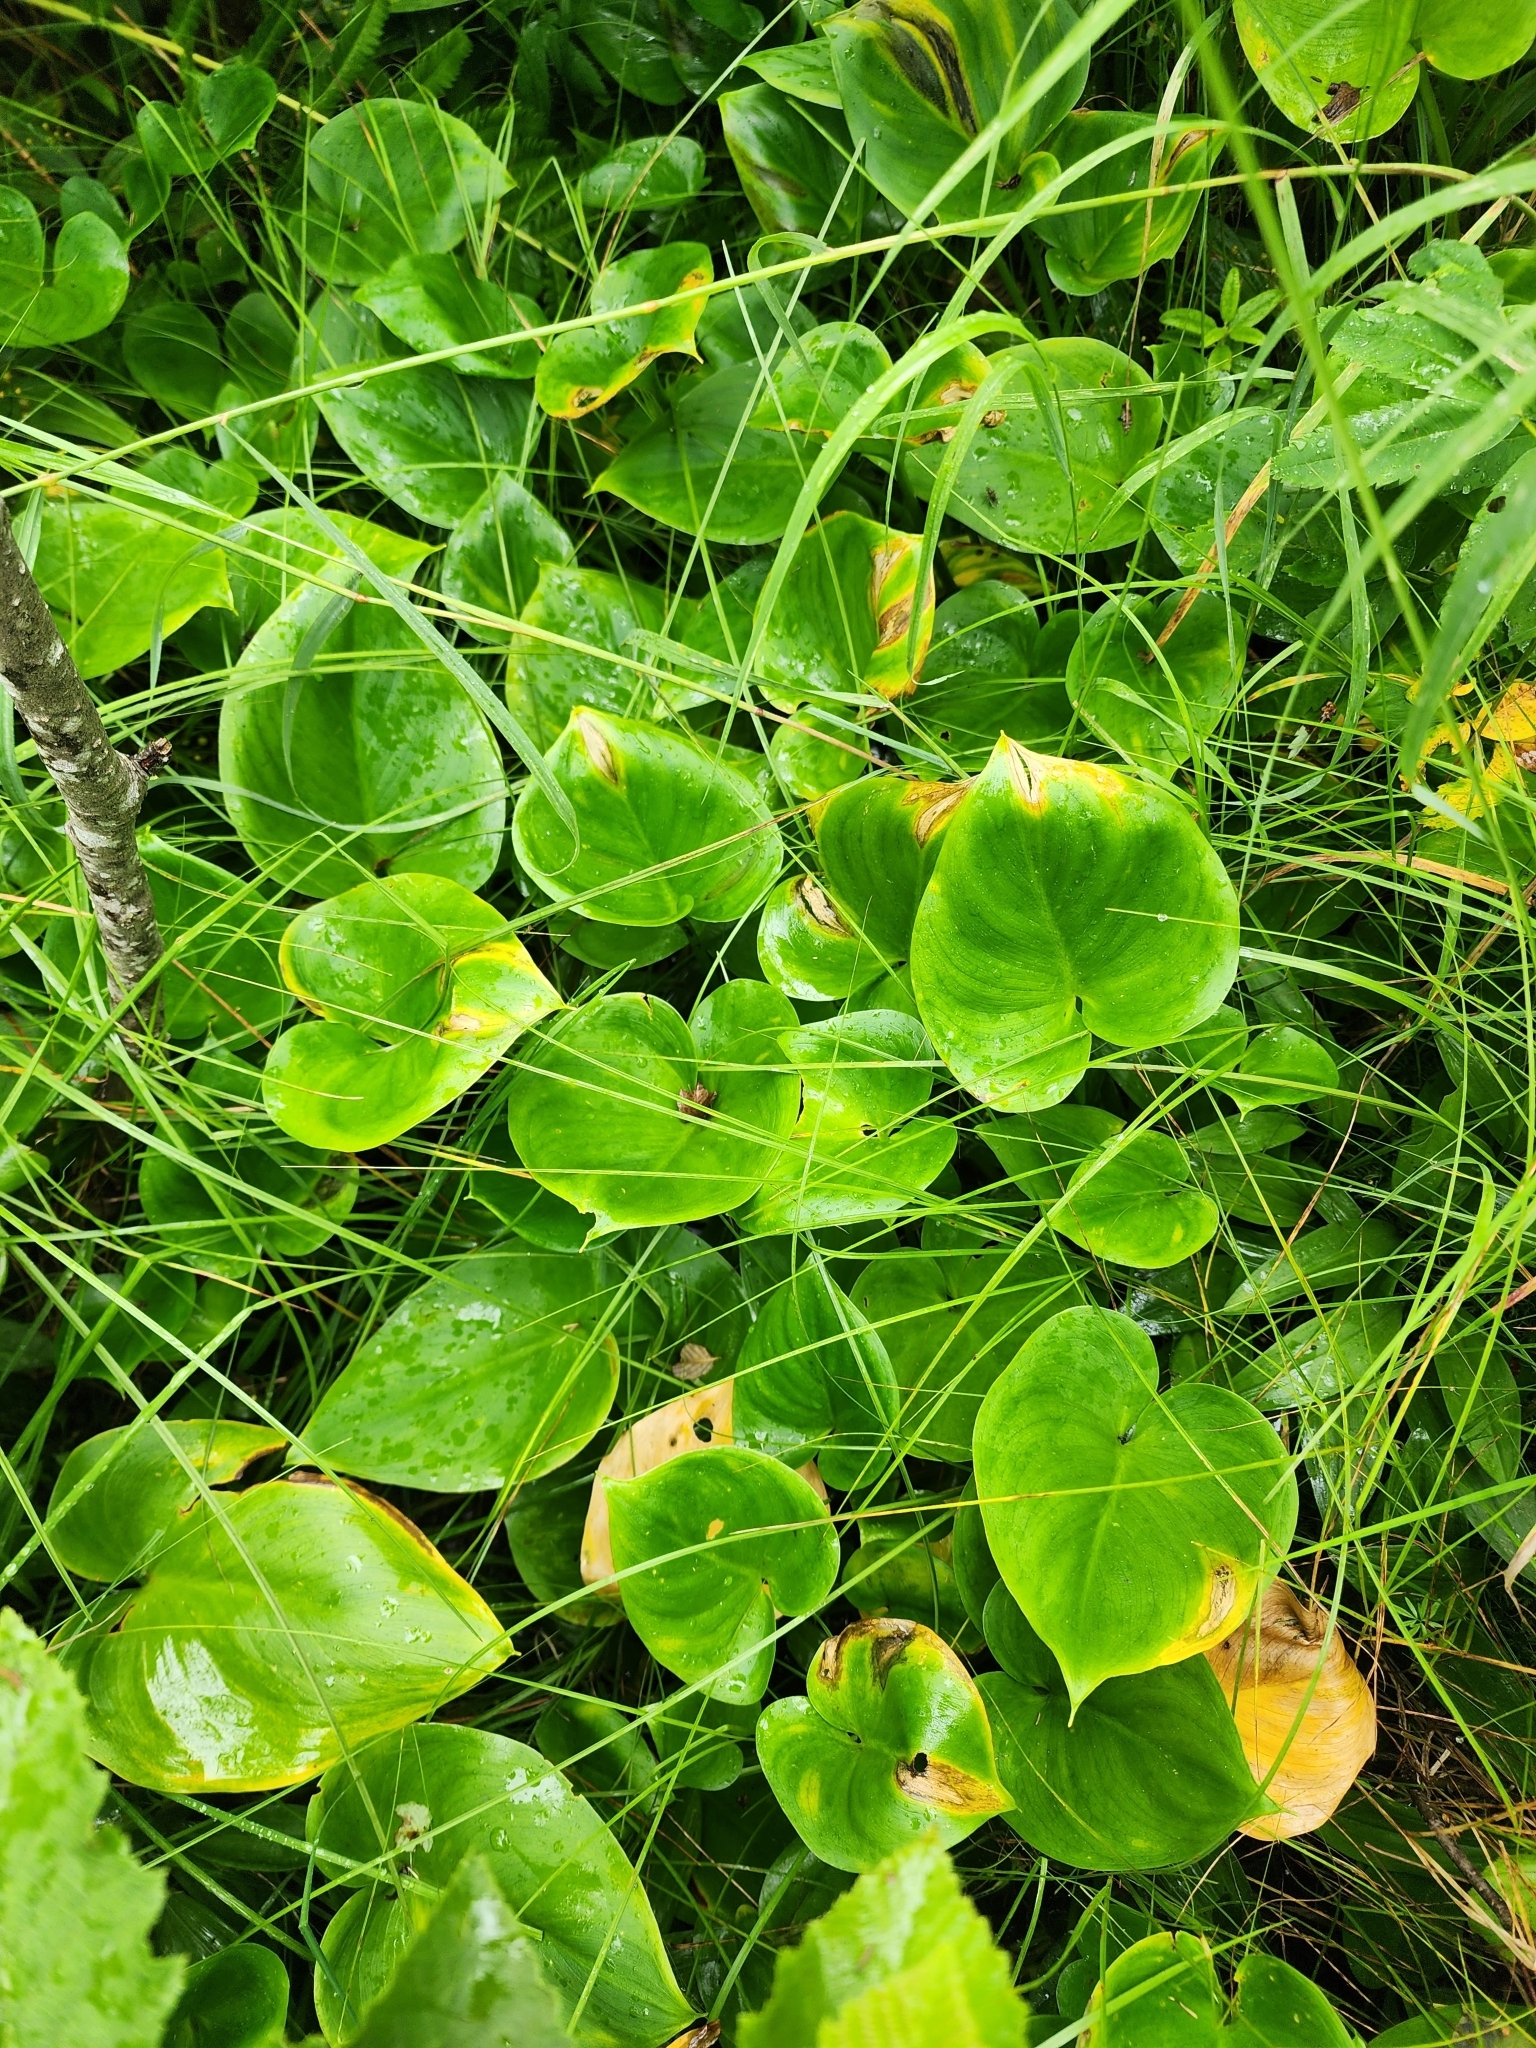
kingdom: Plantae
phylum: Tracheophyta
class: Liliopsida
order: Alismatales
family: Araceae
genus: Calla
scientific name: Calla palustris
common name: Bog arum
